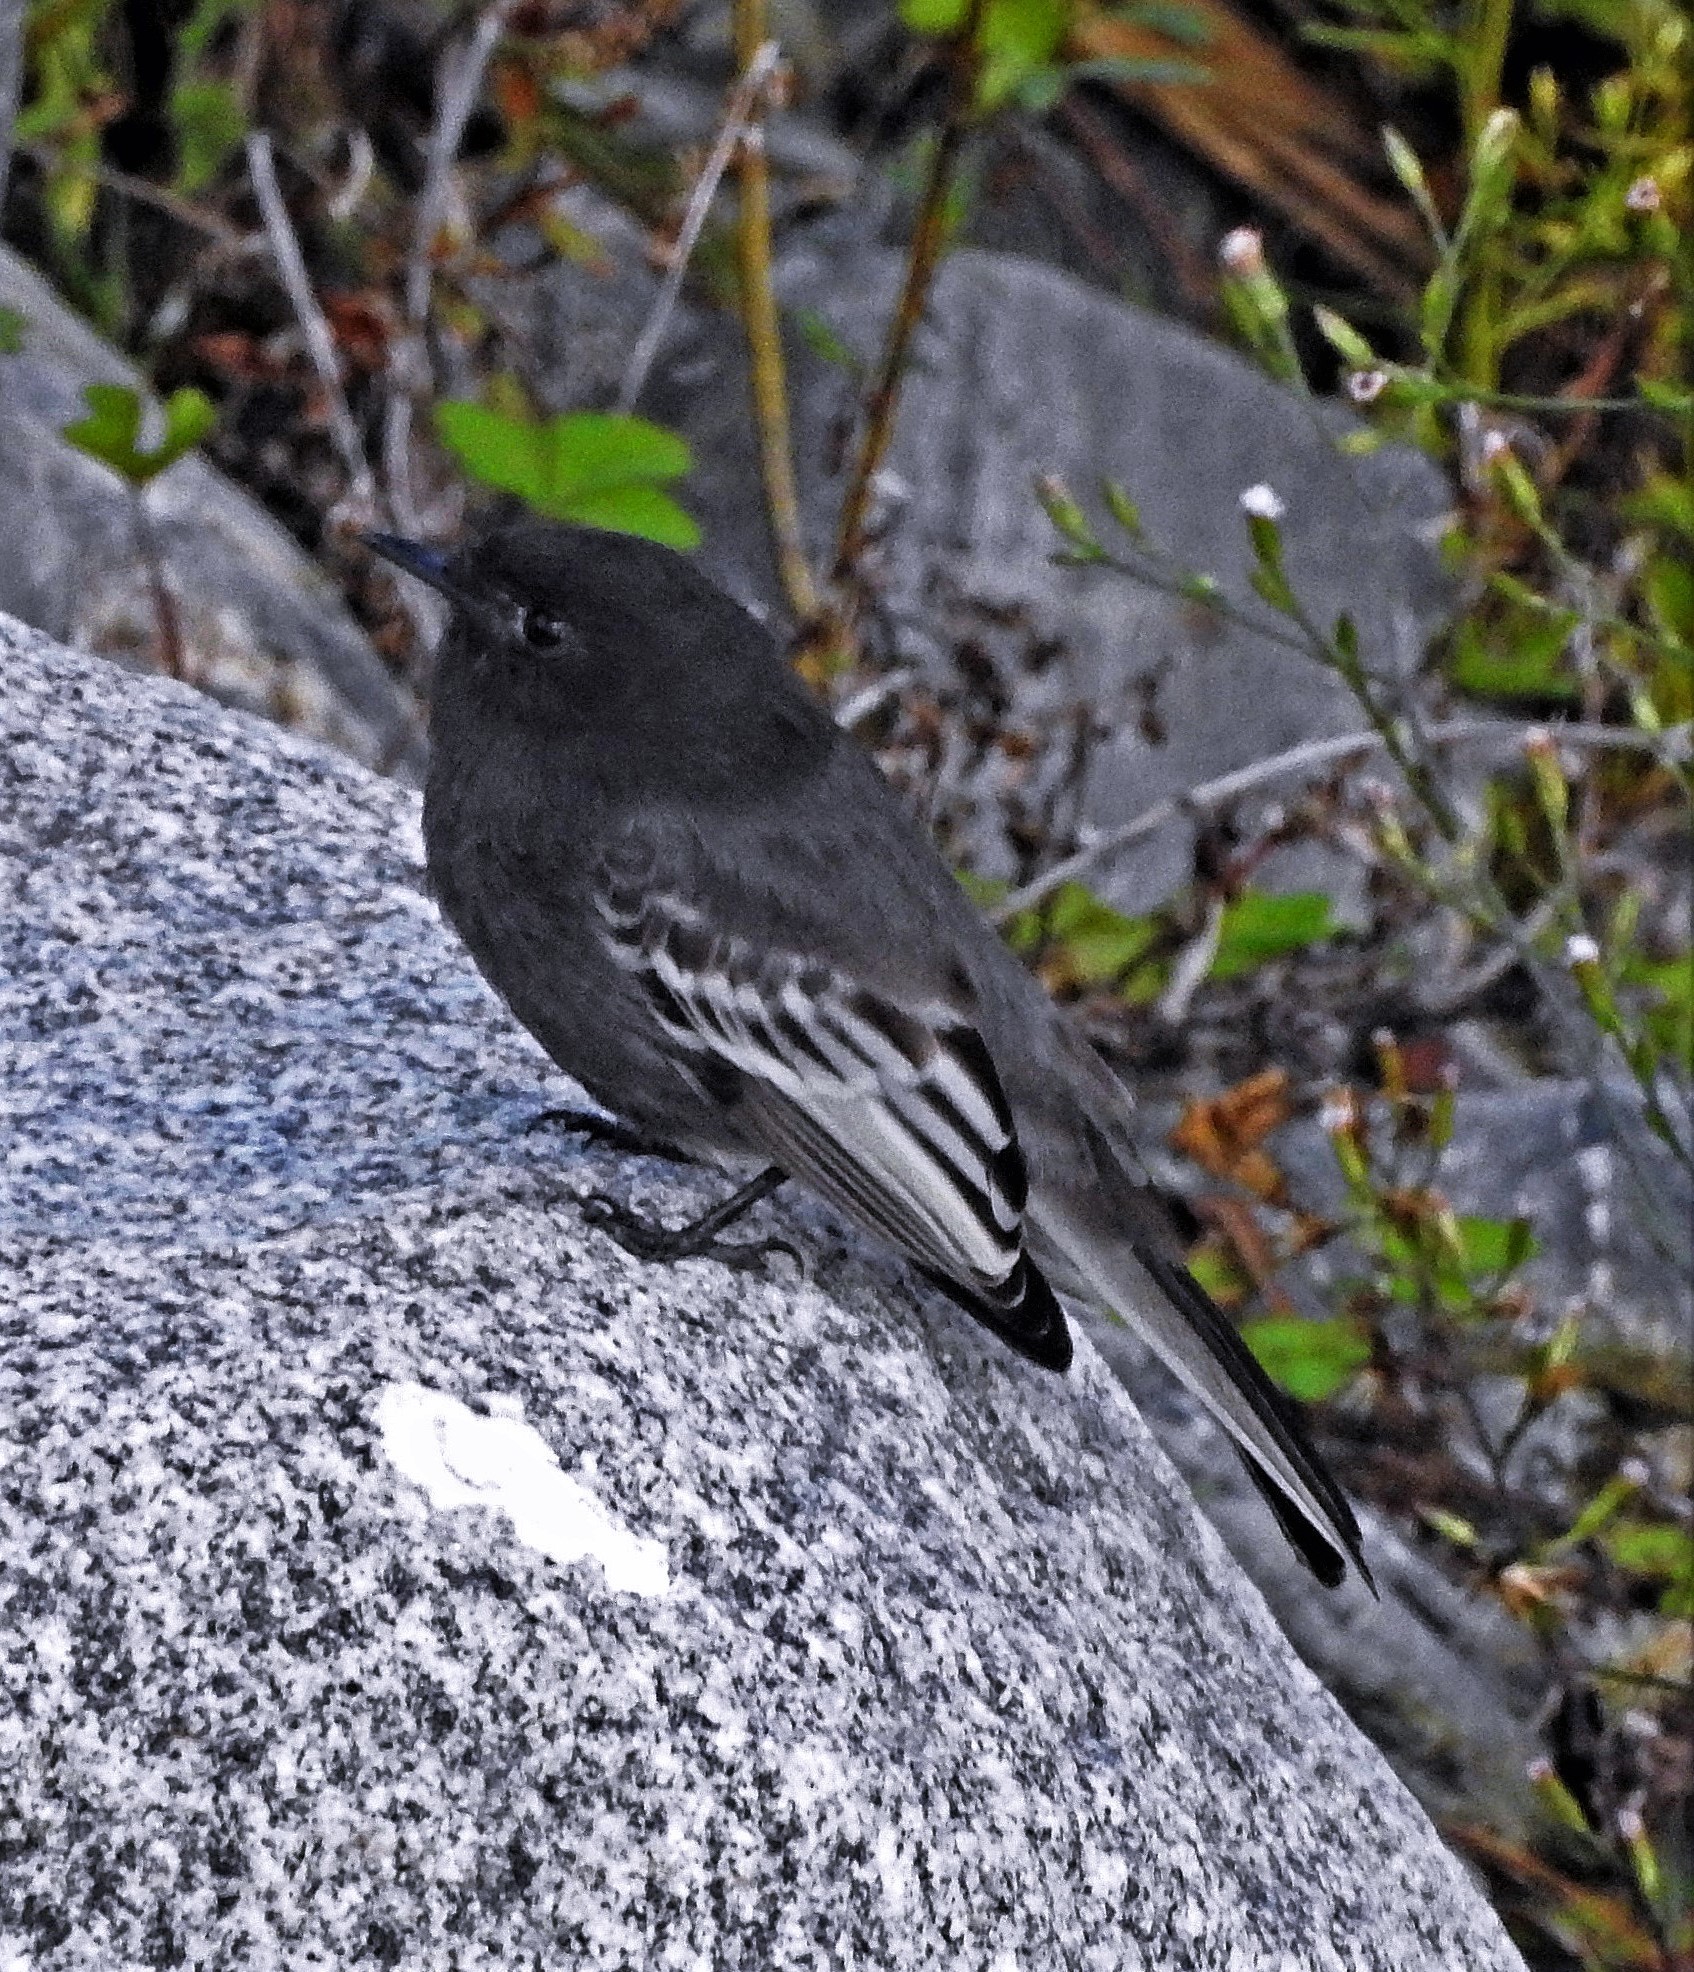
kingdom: Animalia
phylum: Chordata
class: Aves
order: Passeriformes
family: Tyrannidae
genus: Sayornis
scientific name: Sayornis nigricans
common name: Black phoebe
